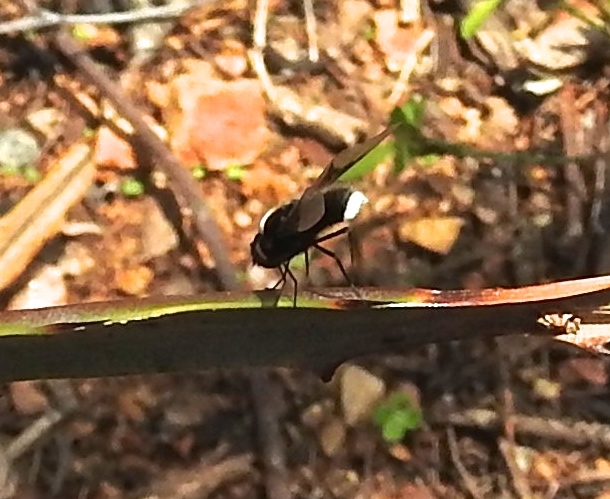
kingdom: Animalia
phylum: Arthropoda
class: Insecta
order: Diptera
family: Bombyliidae
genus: Ogcodocera
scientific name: Ogcodocera leucoprocta
